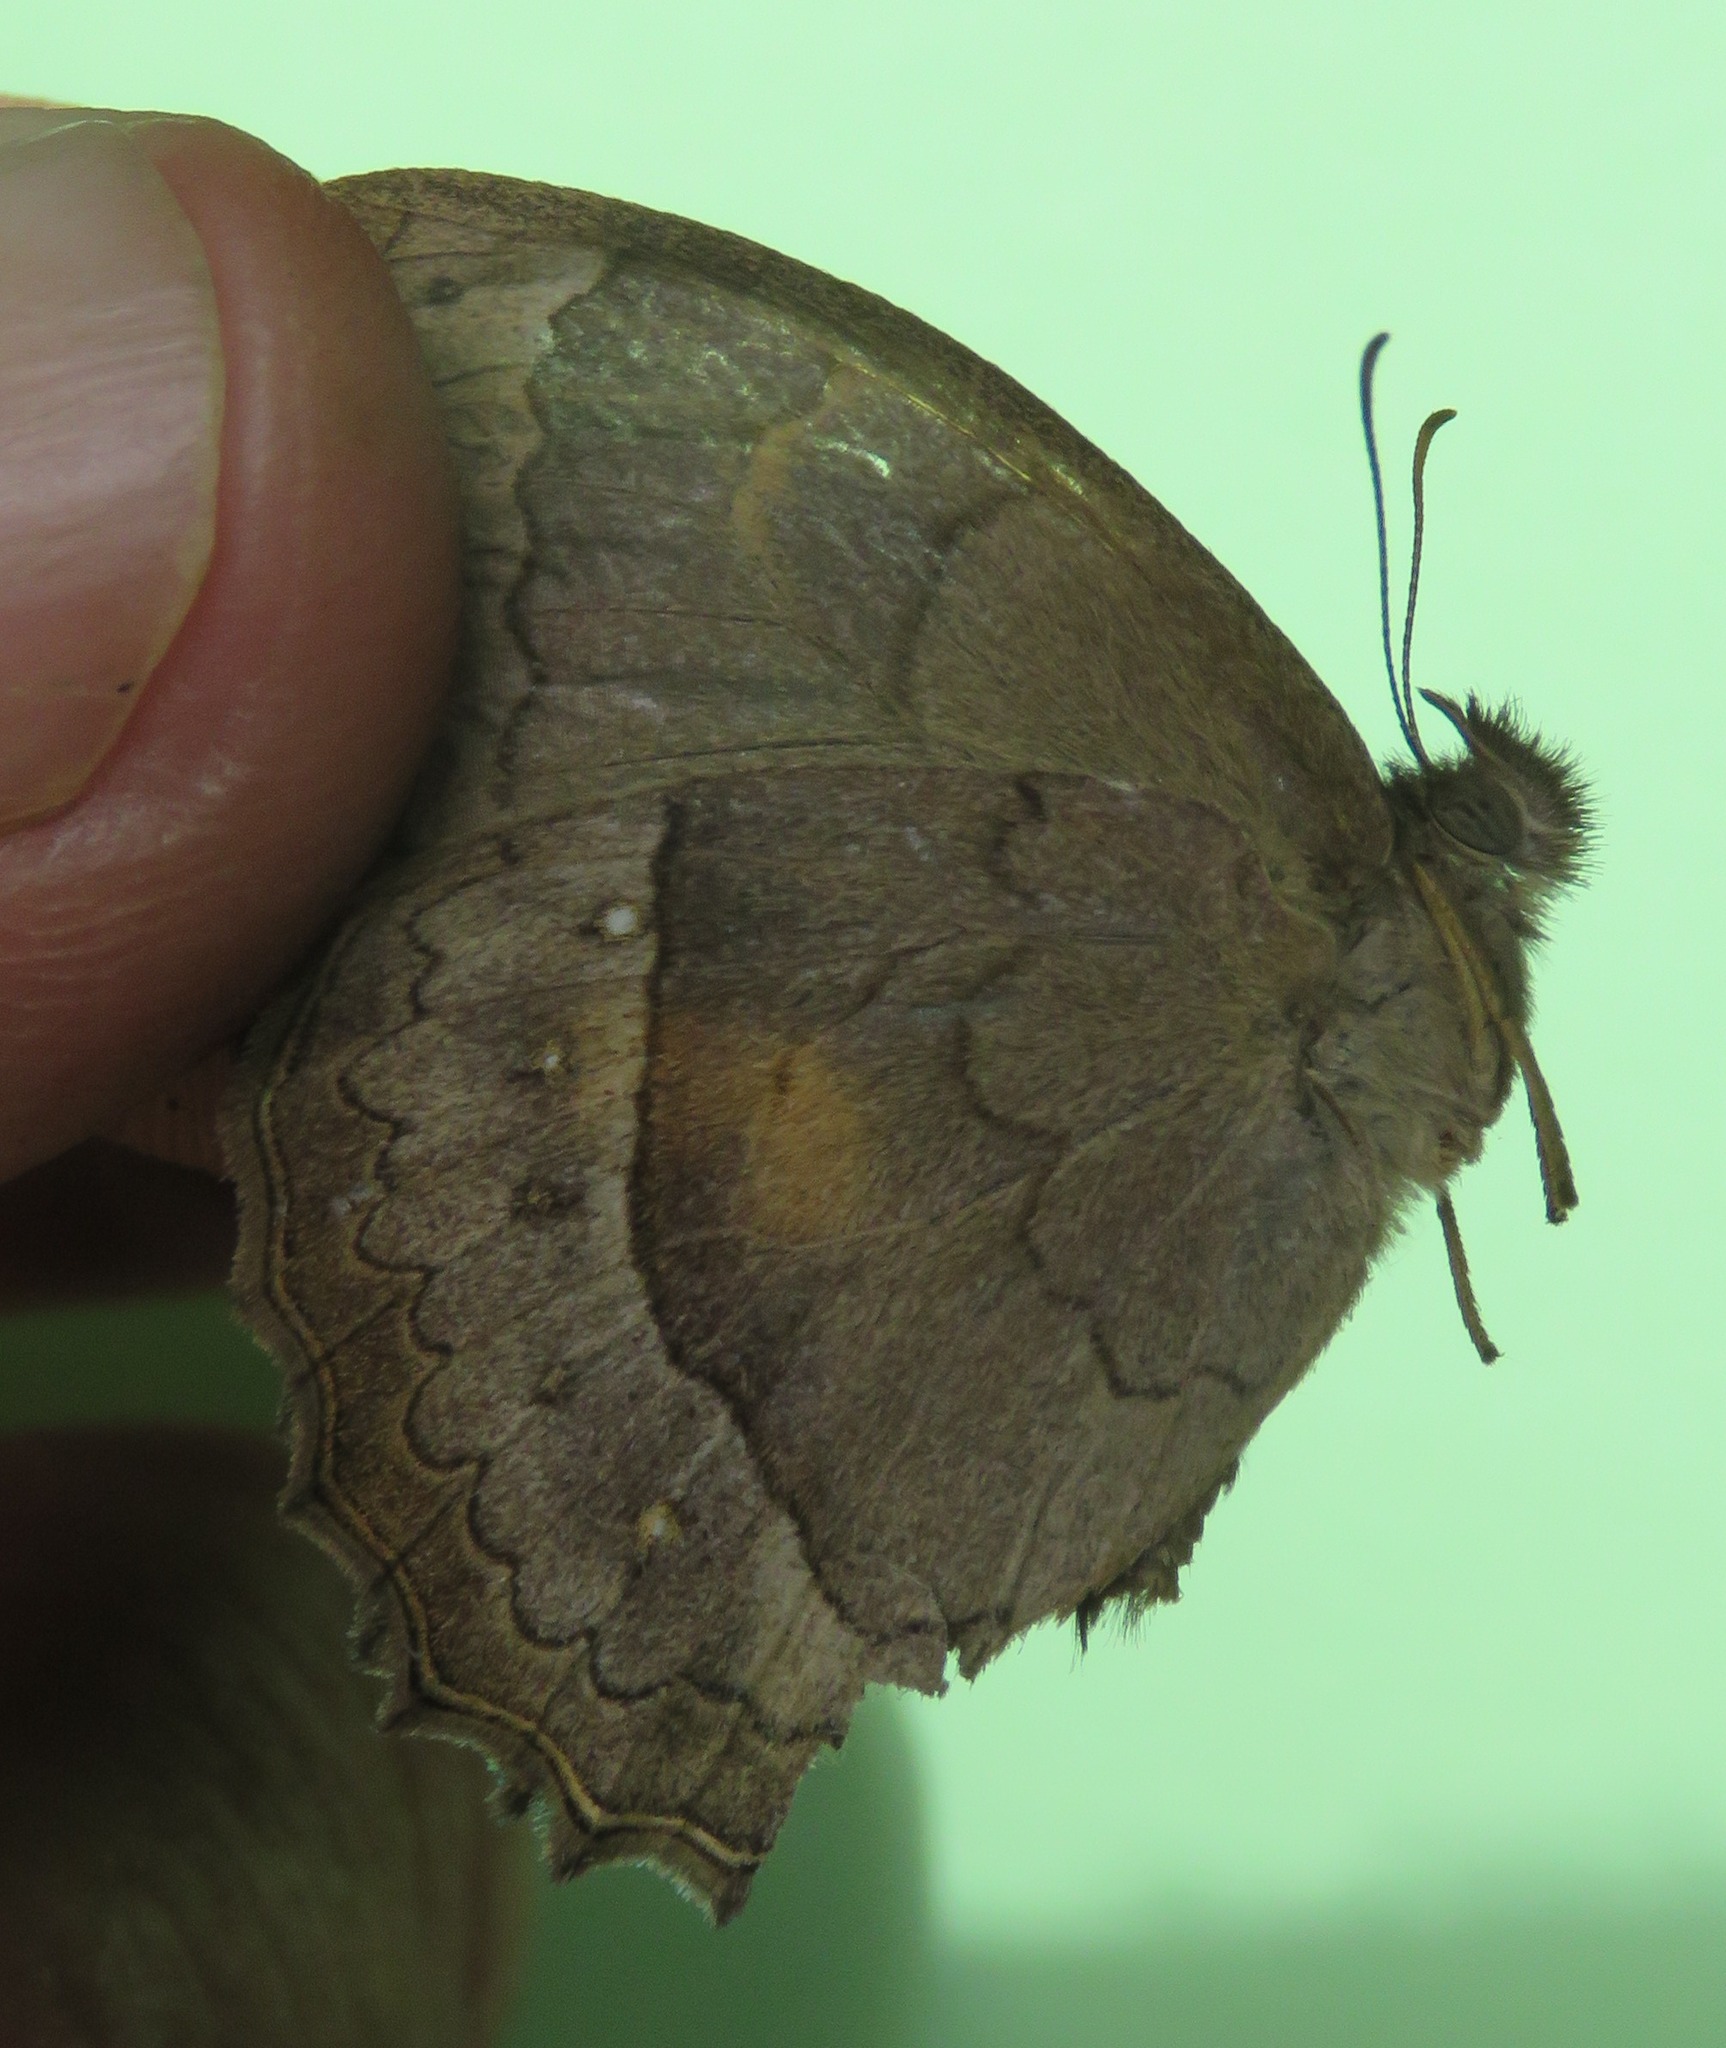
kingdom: Animalia
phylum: Arthropoda
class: Insecta
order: Lepidoptera
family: Nymphalidae
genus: Taygetina
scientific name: Taygetina kerea
